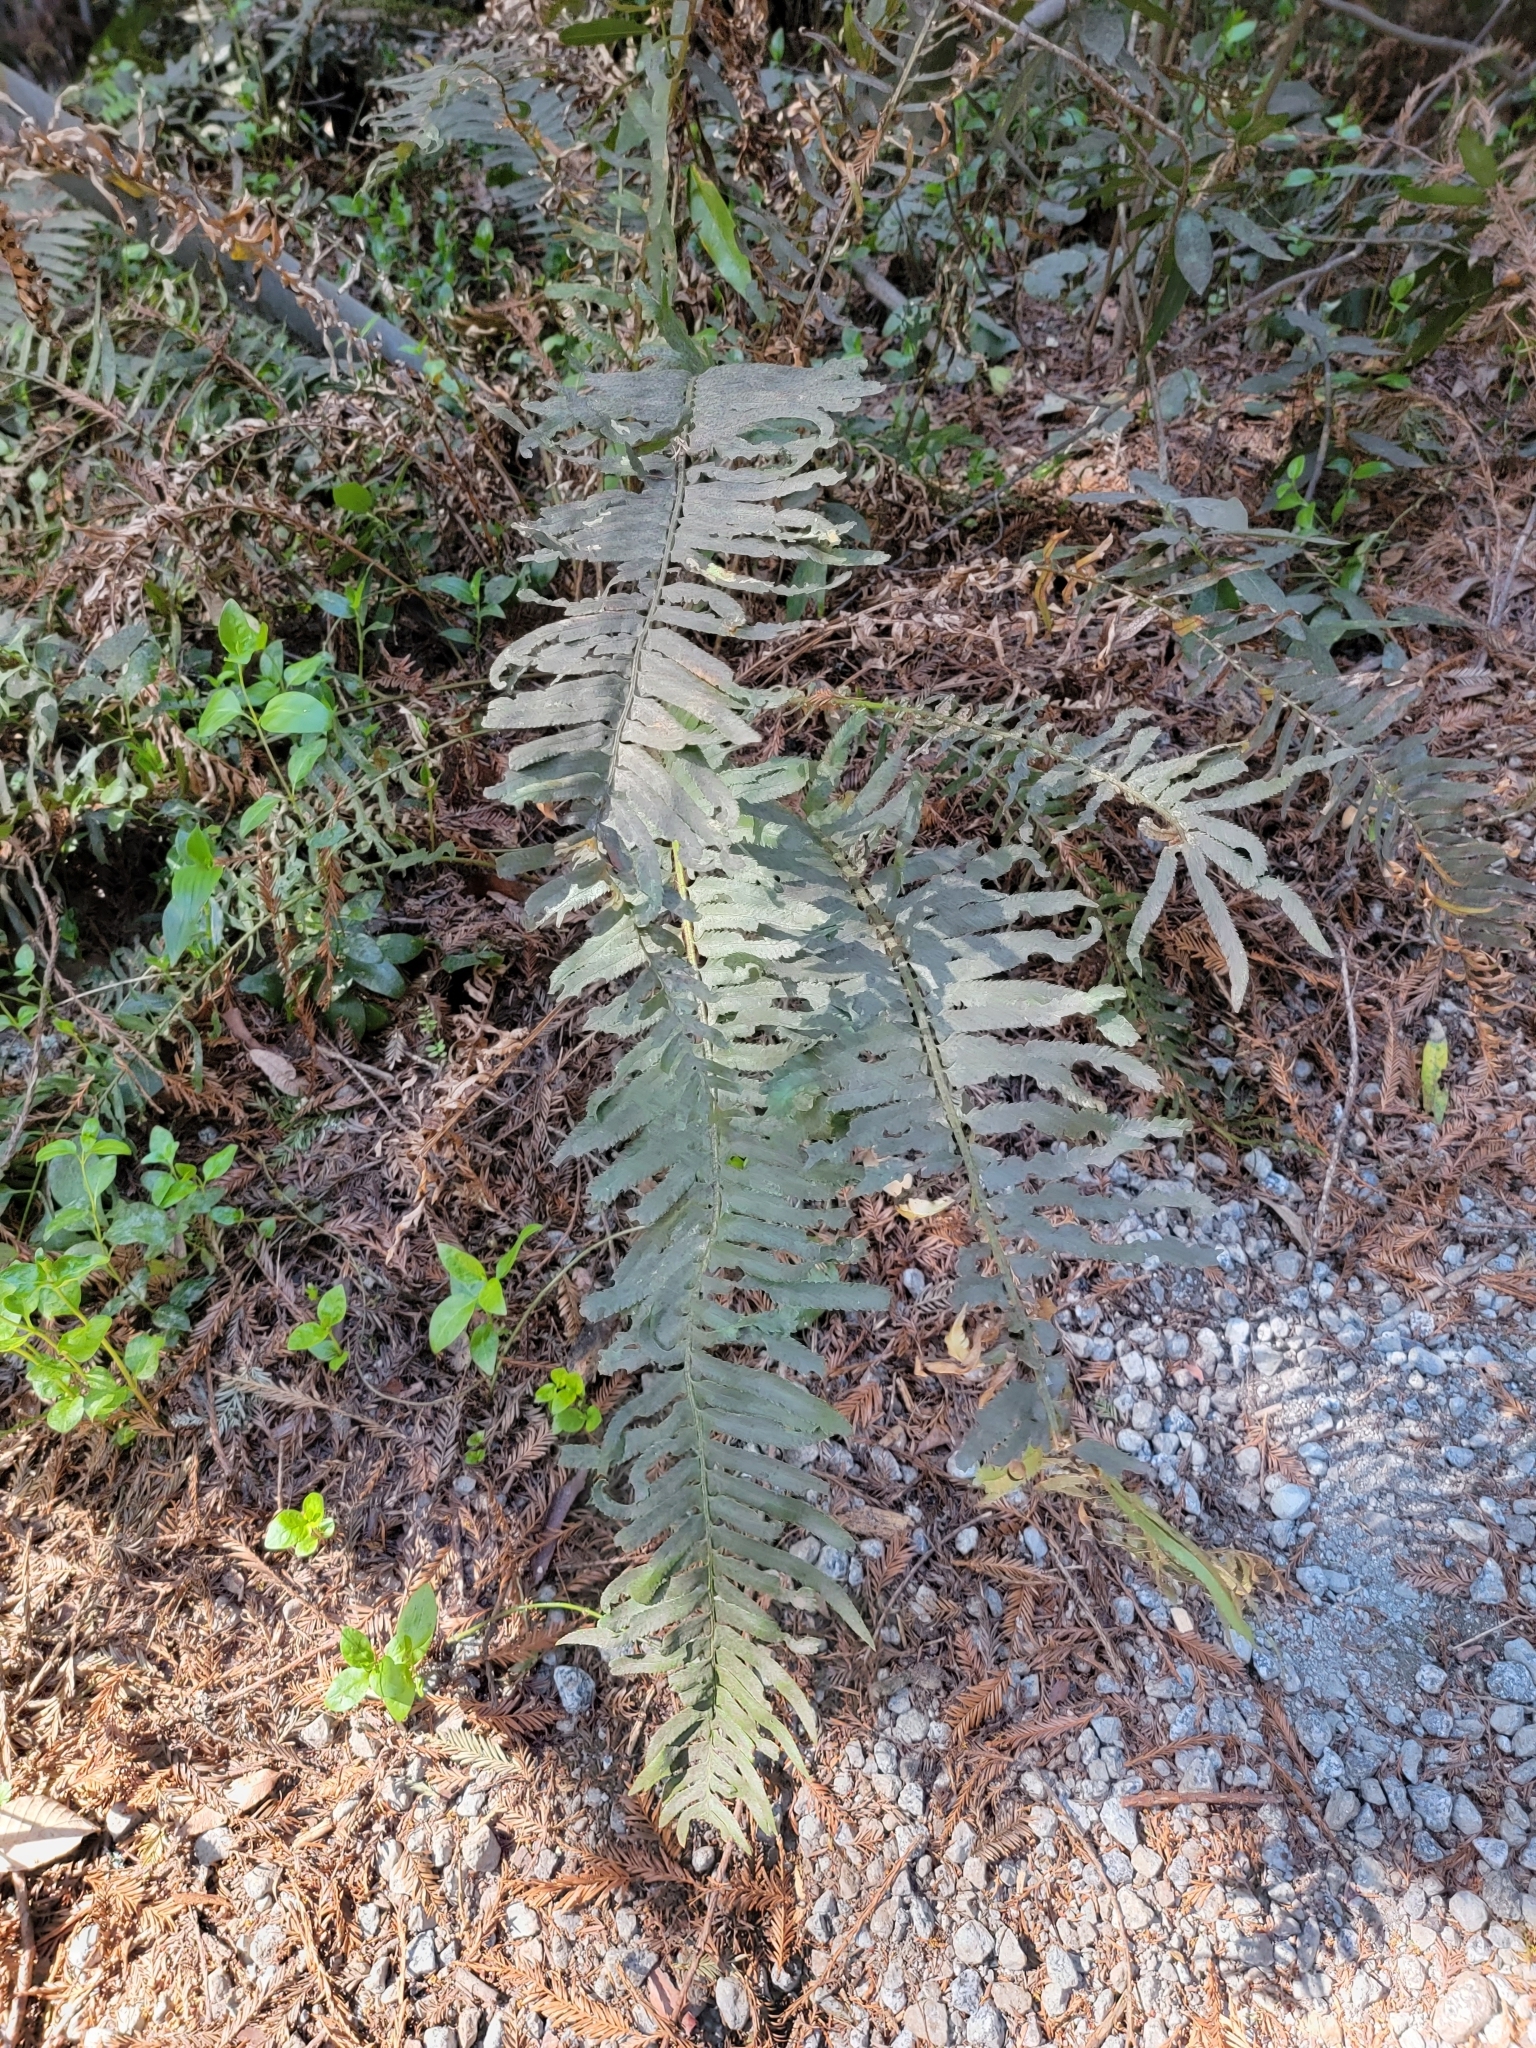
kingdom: Plantae
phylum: Tracheophyta
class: Polypodiopsida
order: Polypodiales
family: Dryopteridaceae
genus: Polystichum
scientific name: Polystichum munitum
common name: Western sword-fern
